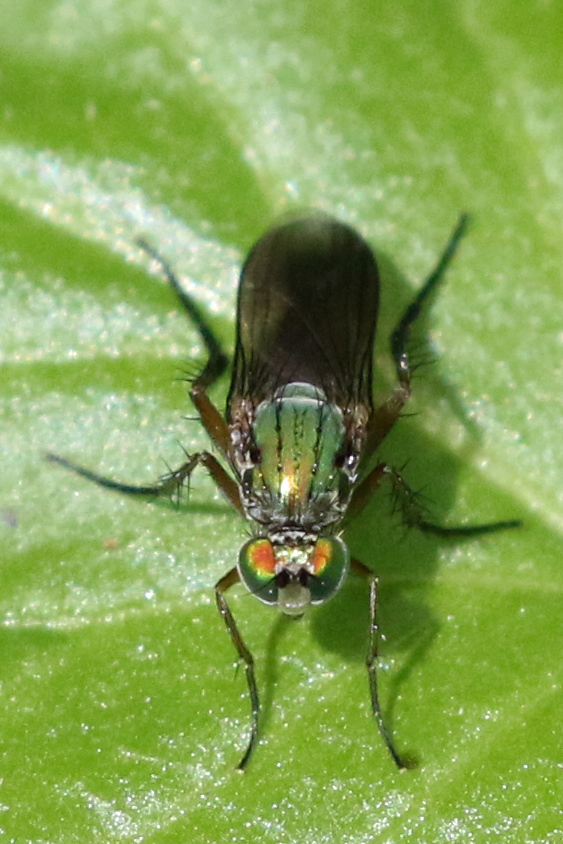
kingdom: Animalia
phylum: Arthropoda
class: Insecta
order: Diptera
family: Dolichopodidae
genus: Poecilobothrus
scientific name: Poecilobothrus nobilitatus
